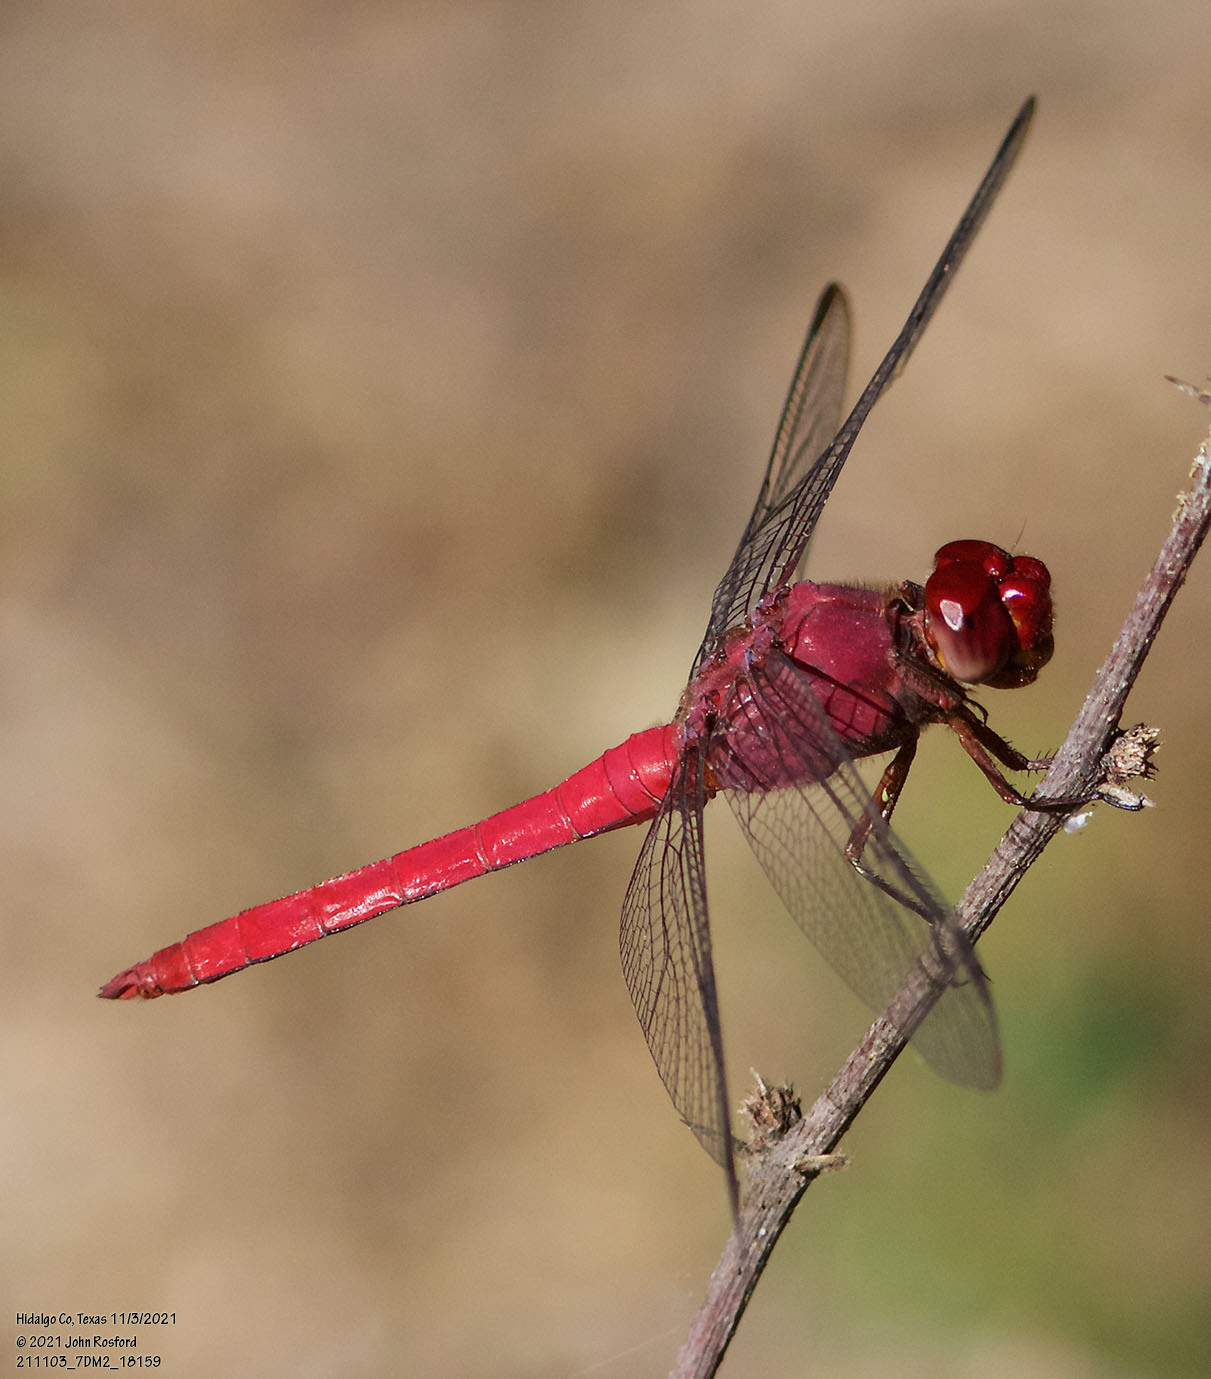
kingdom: Animalia
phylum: Arthropoda
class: Insecta
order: Odonata
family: Libellulidae
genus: Orthemis
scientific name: Orthemis discolor
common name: Carmine skimmer
